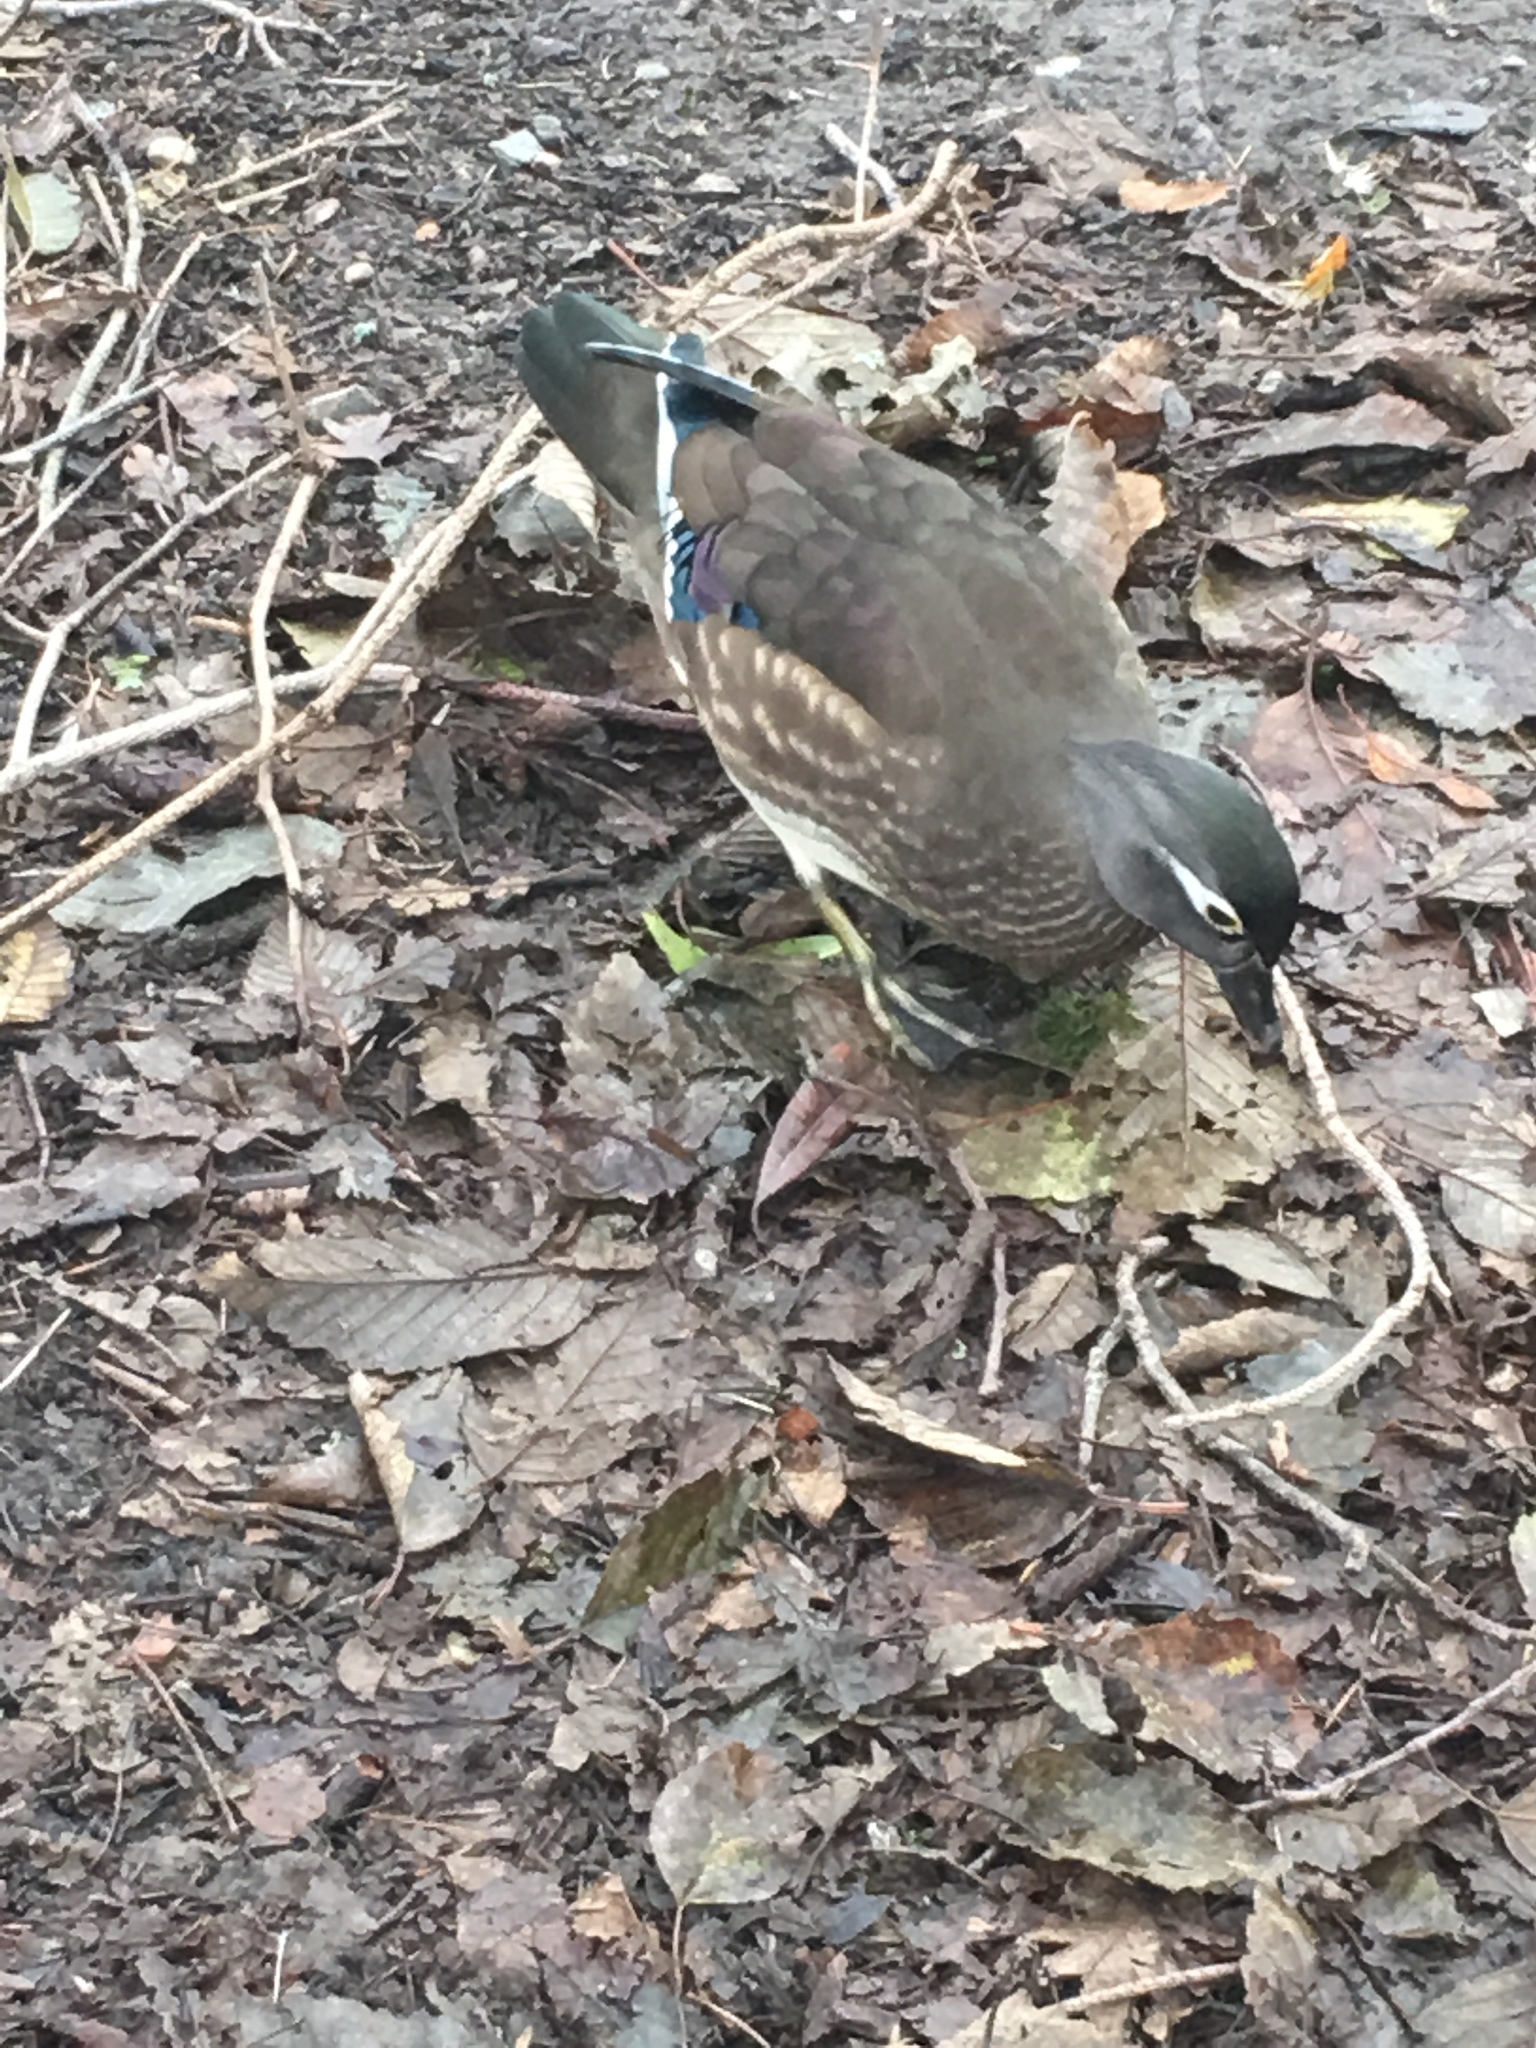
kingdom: Animalia
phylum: Chordata
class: Aves
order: Anseriformes
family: Anatidae
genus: Aix
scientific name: Aix sponsa
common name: Wood duck
